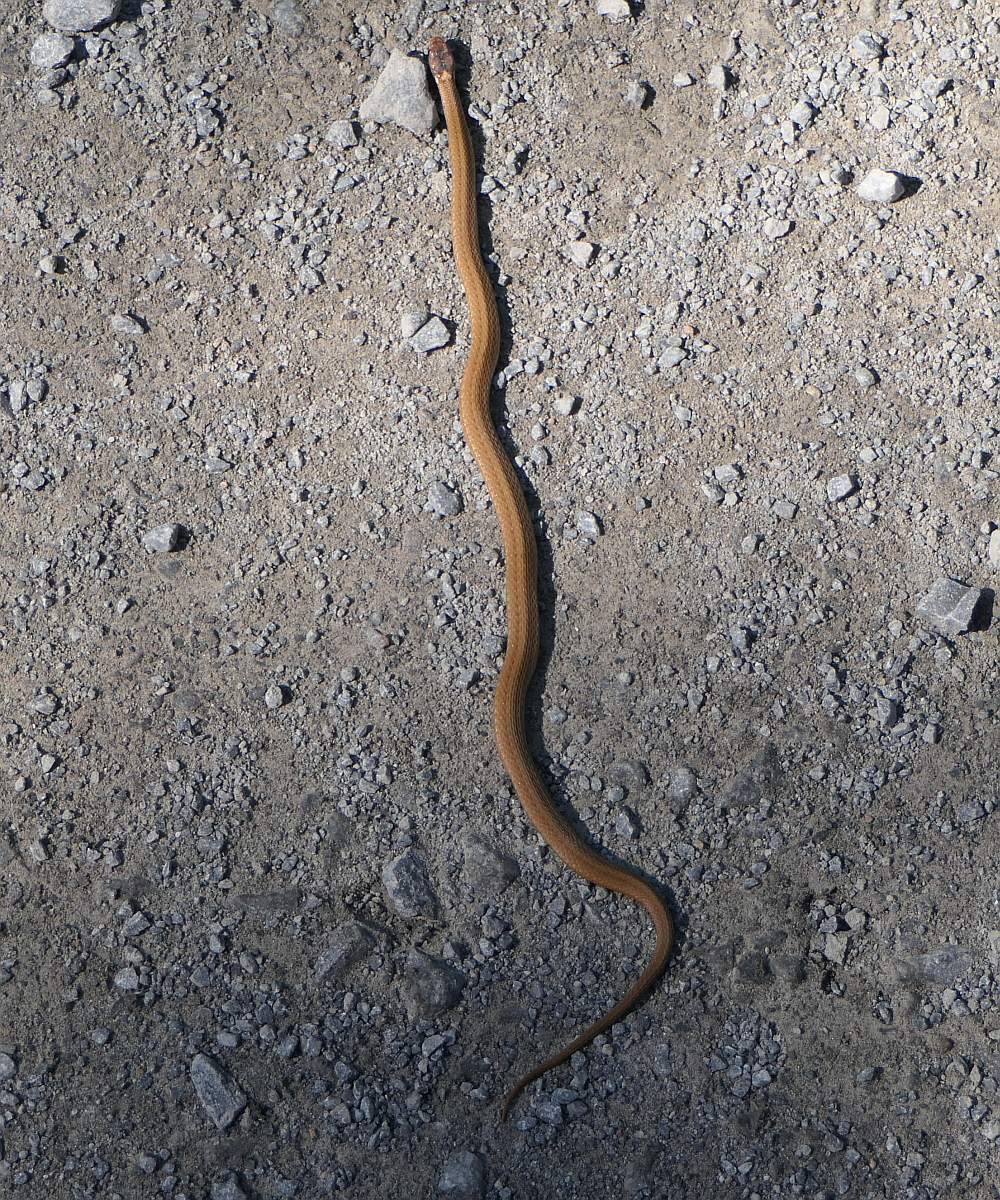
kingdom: Animalia
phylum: Chordata
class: Squamata
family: Colubridae
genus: Storeria
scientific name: Storeria occipitomaculata
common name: Redbelly snake
